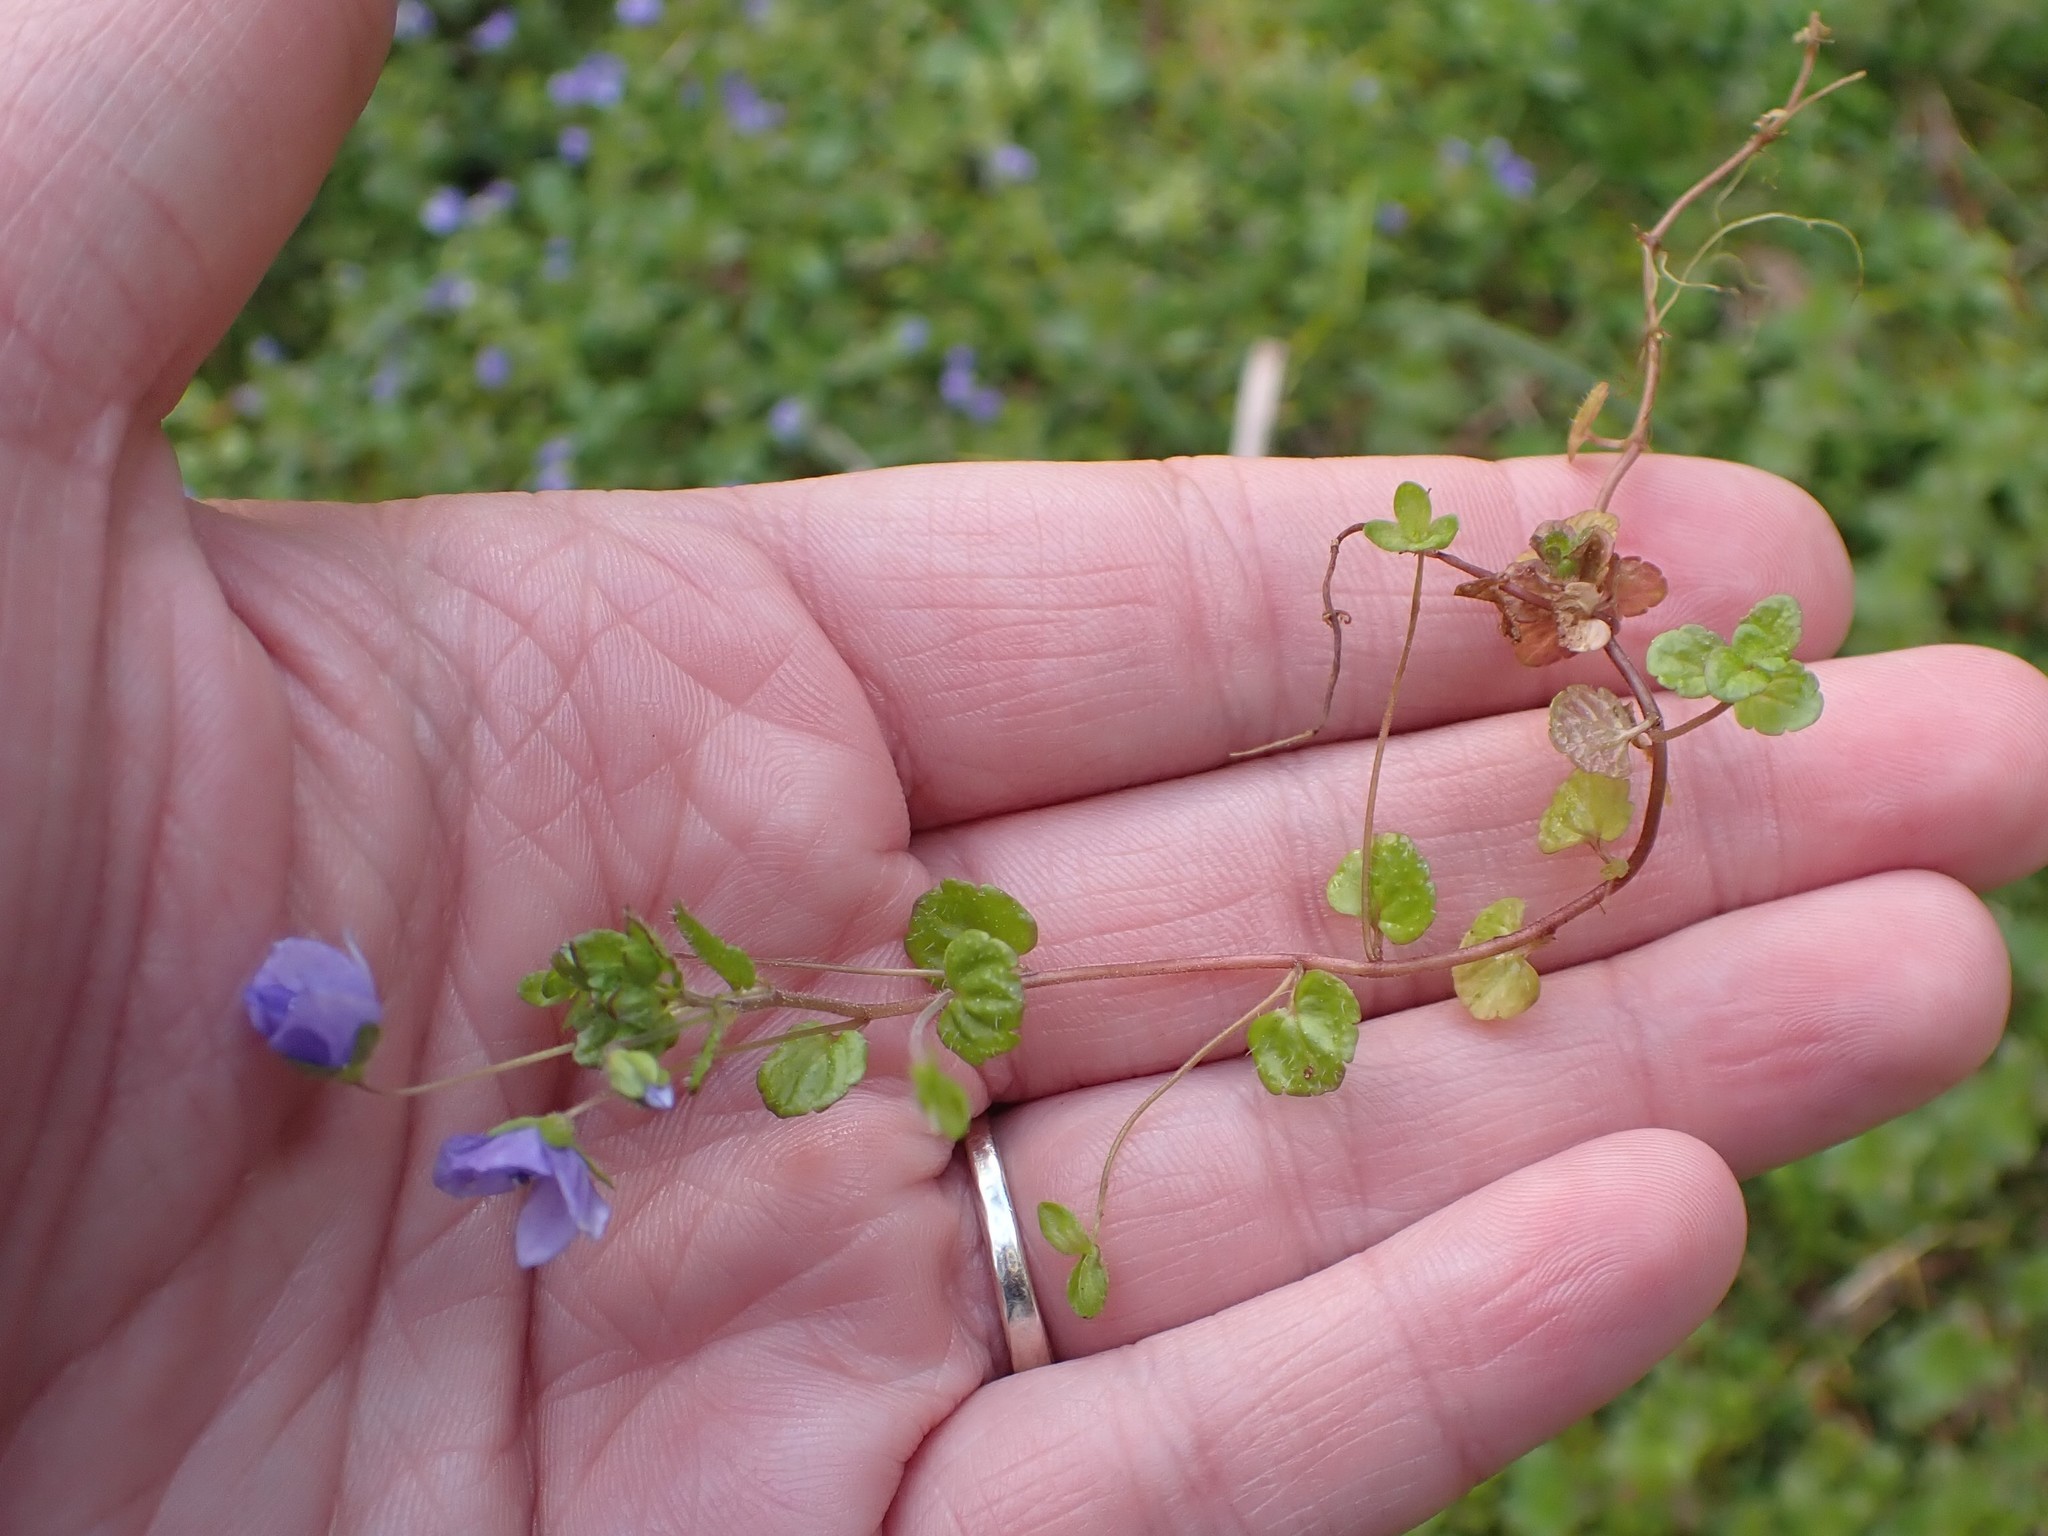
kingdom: Plantae
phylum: Tracheophyta
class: Magnoliopsida
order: Lamiales
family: Plantaginaceae
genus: Veronica
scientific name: Veronica filiformis
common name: Slender speedwell
